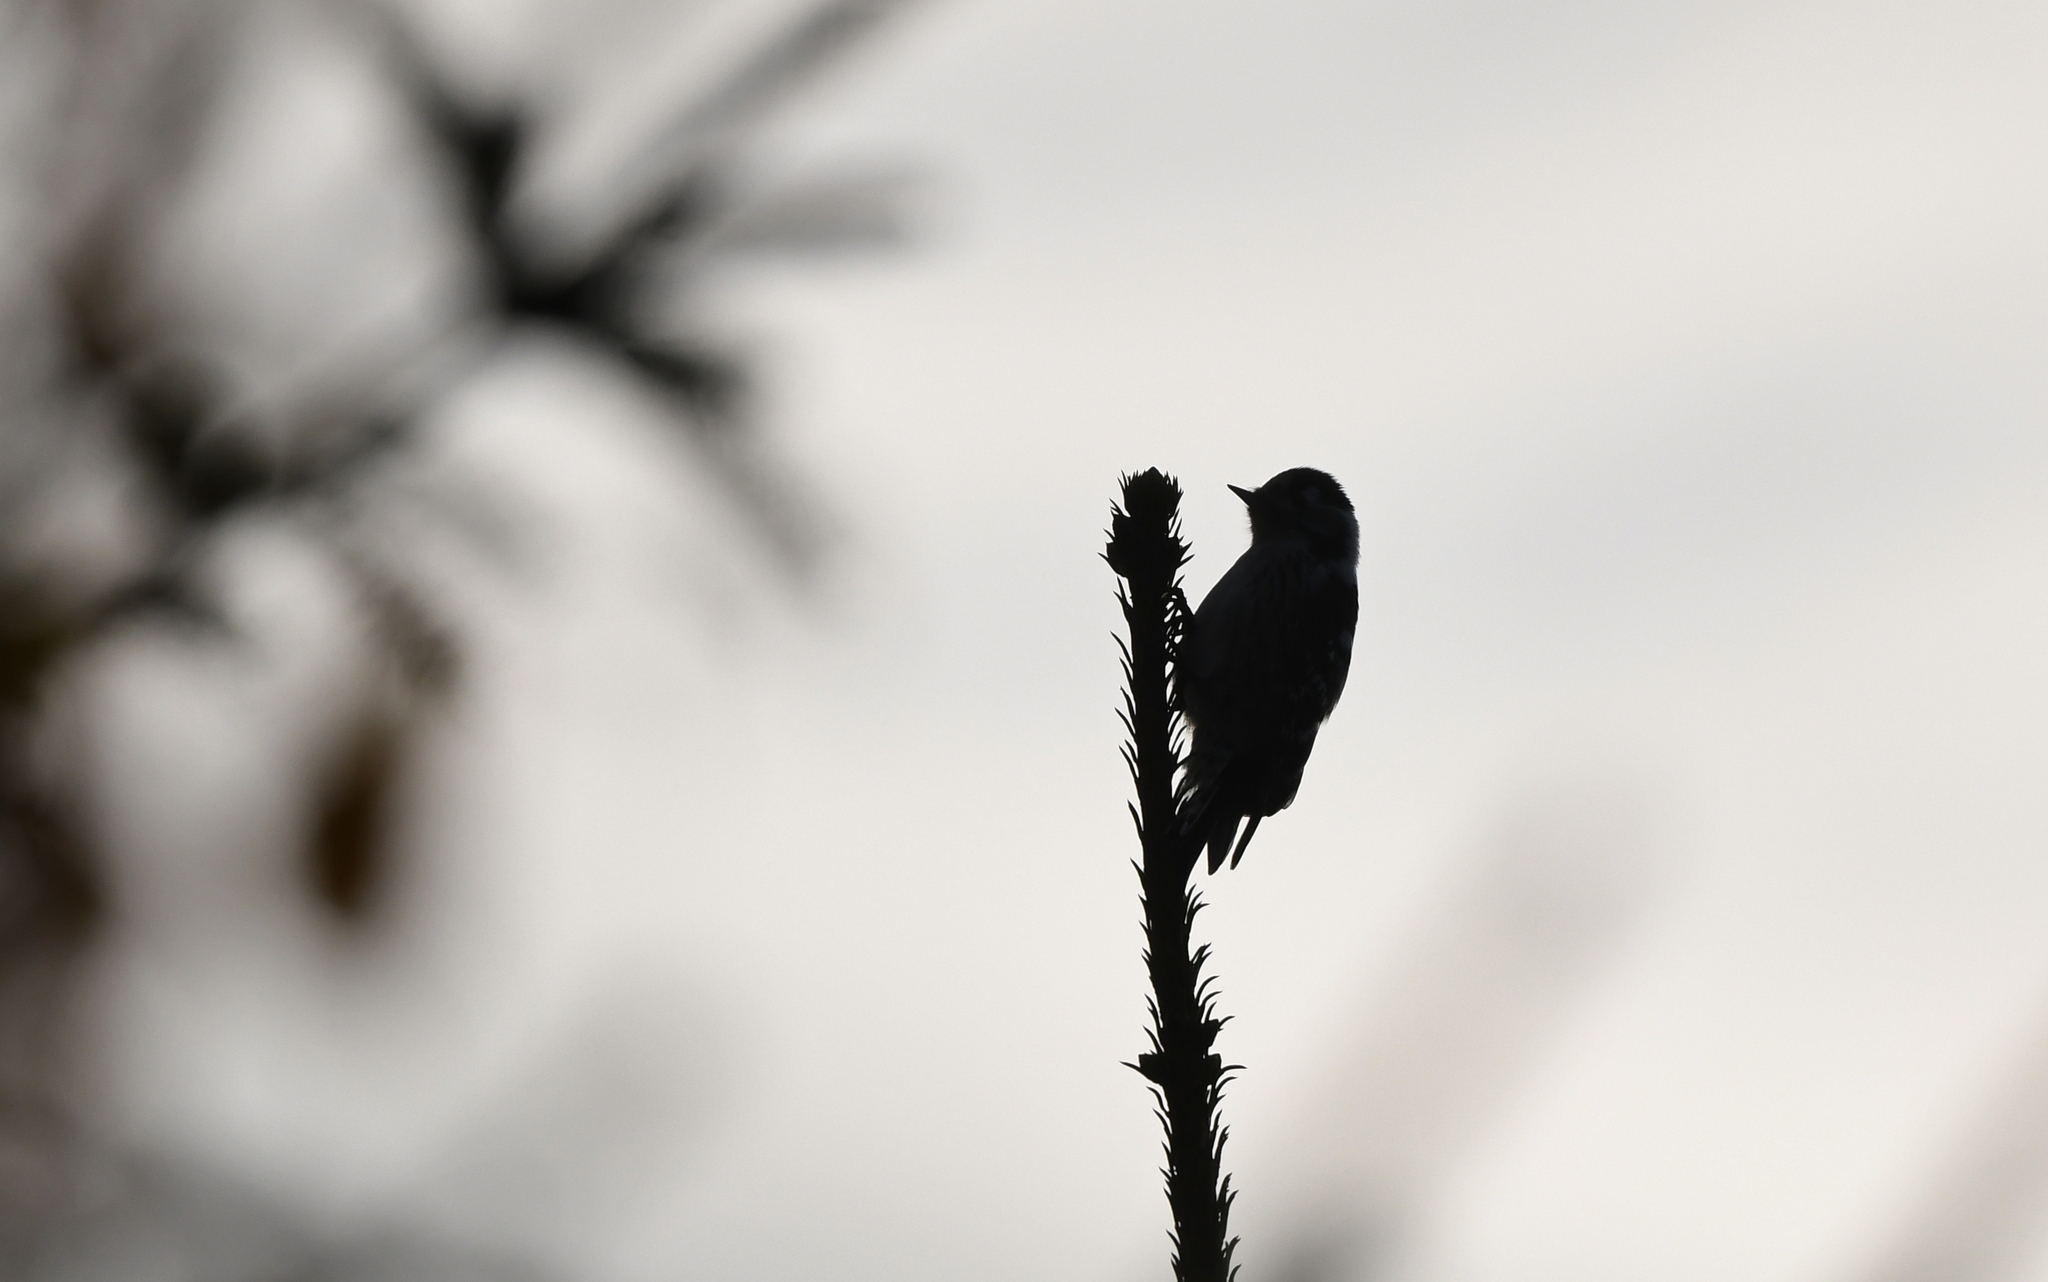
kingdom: Animalia
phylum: Chordata
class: Aves
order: Piciformes
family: Picidae
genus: Dryobates
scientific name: Dryobates minor
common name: Lesser spotted woodpecker
